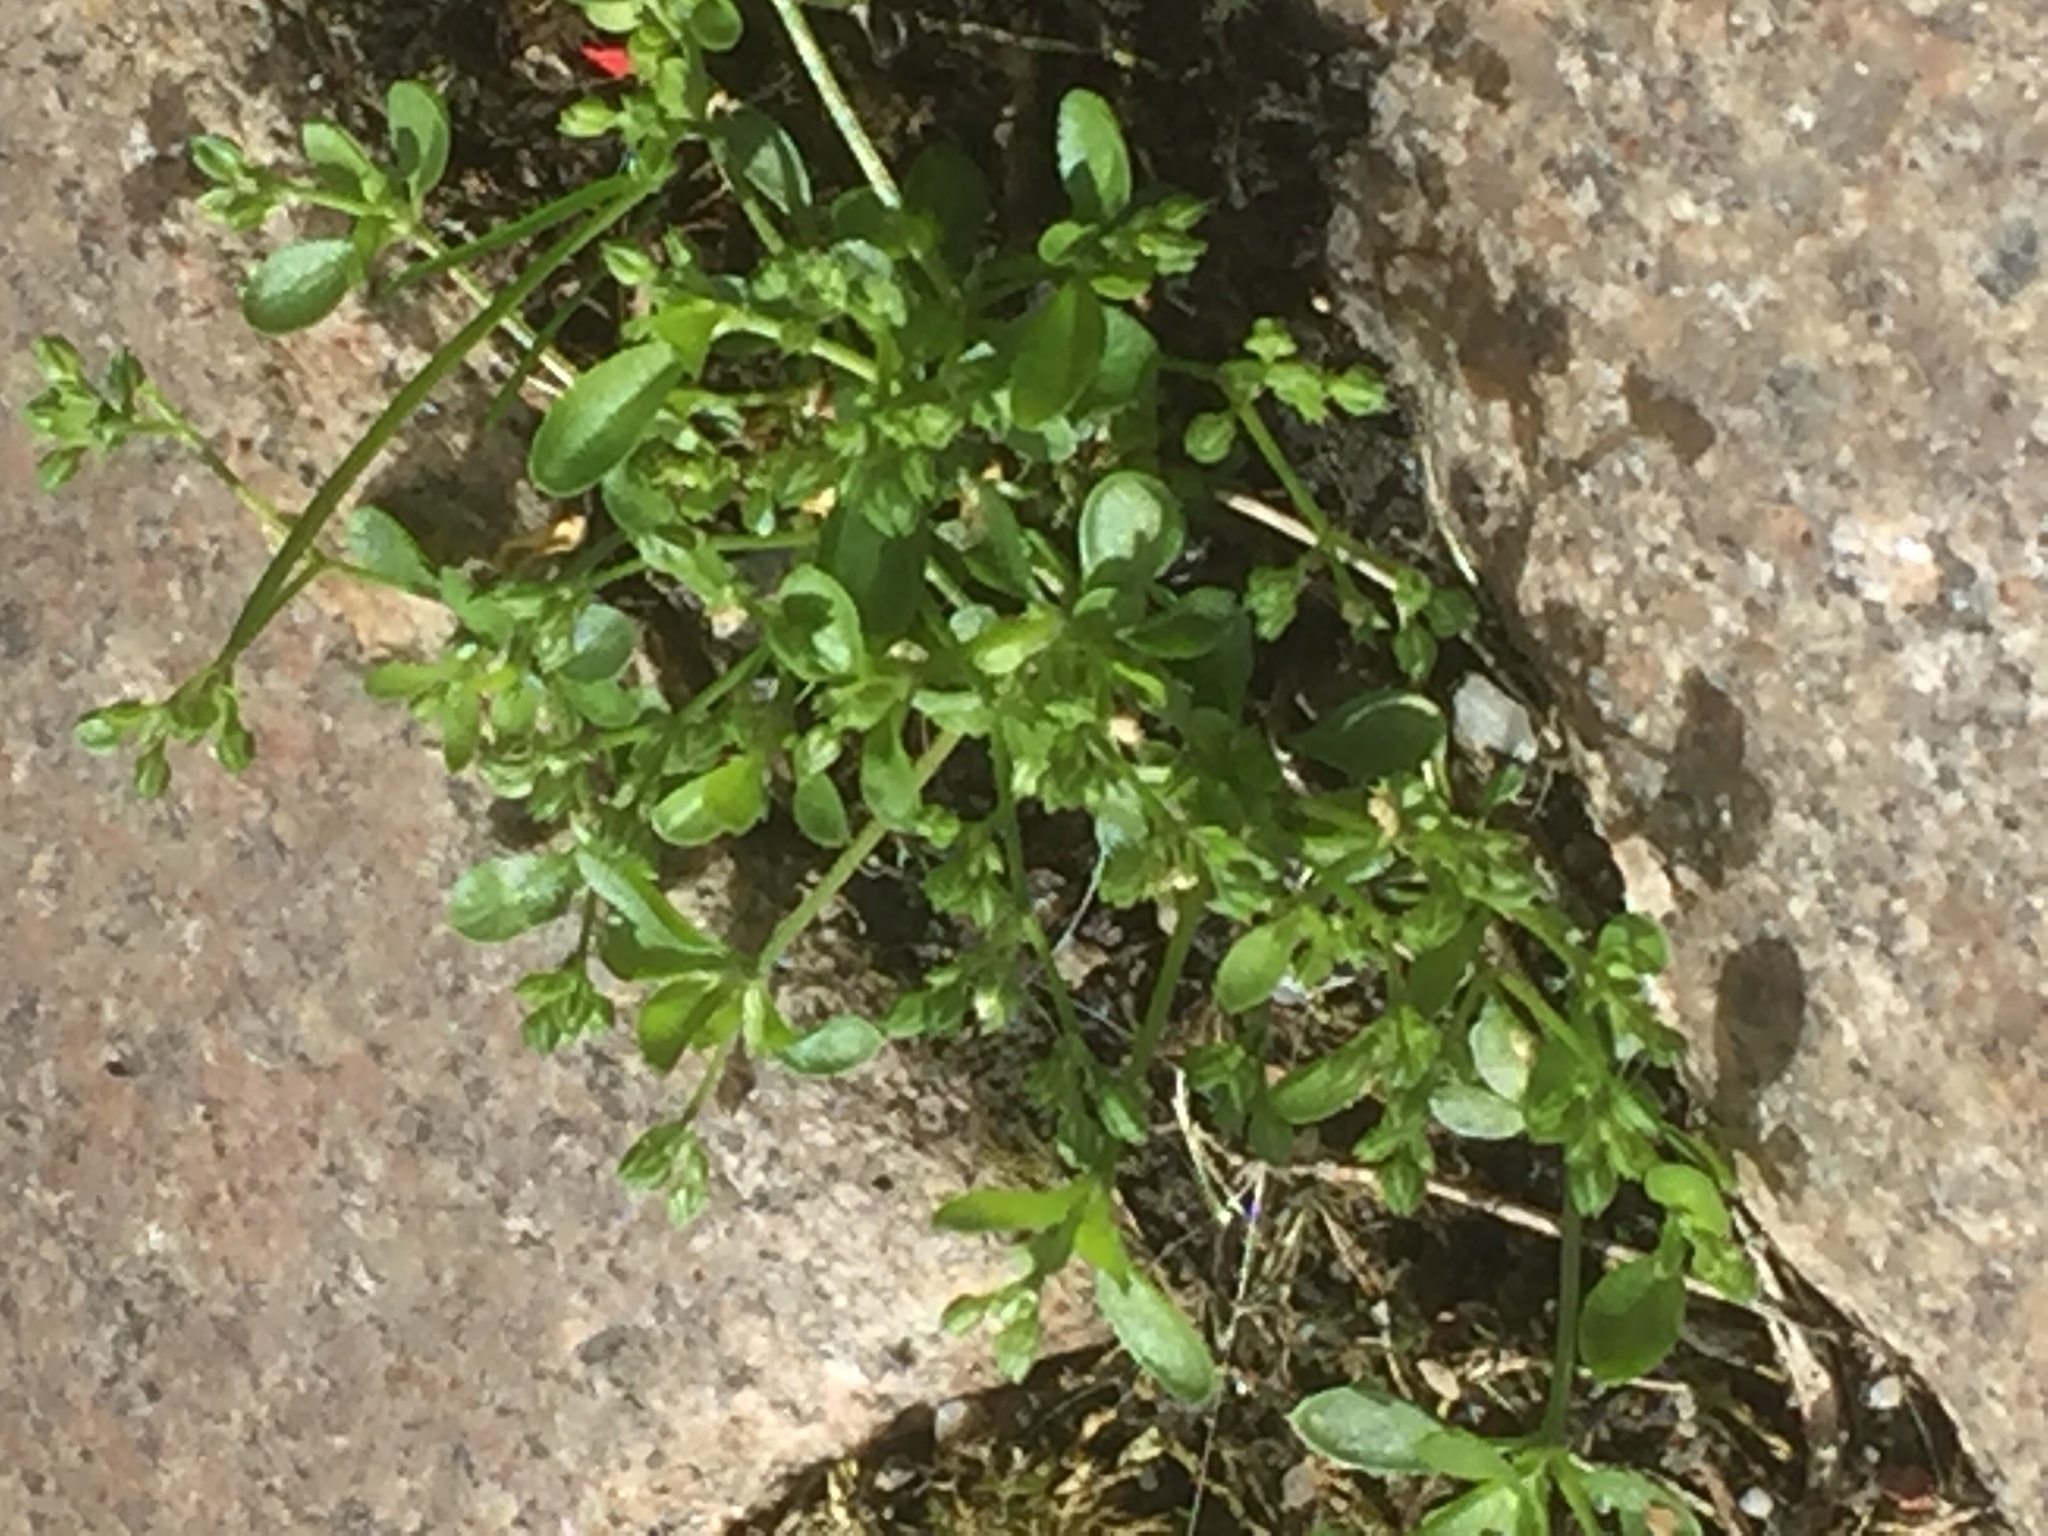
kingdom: Plantae
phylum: Tracheophyta
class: Magnoliopsida
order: Caryophyllales
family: Caryophyllaceae
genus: Polycarpon
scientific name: Polycarpon tetraphyllum
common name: Four-leaved all-seed
